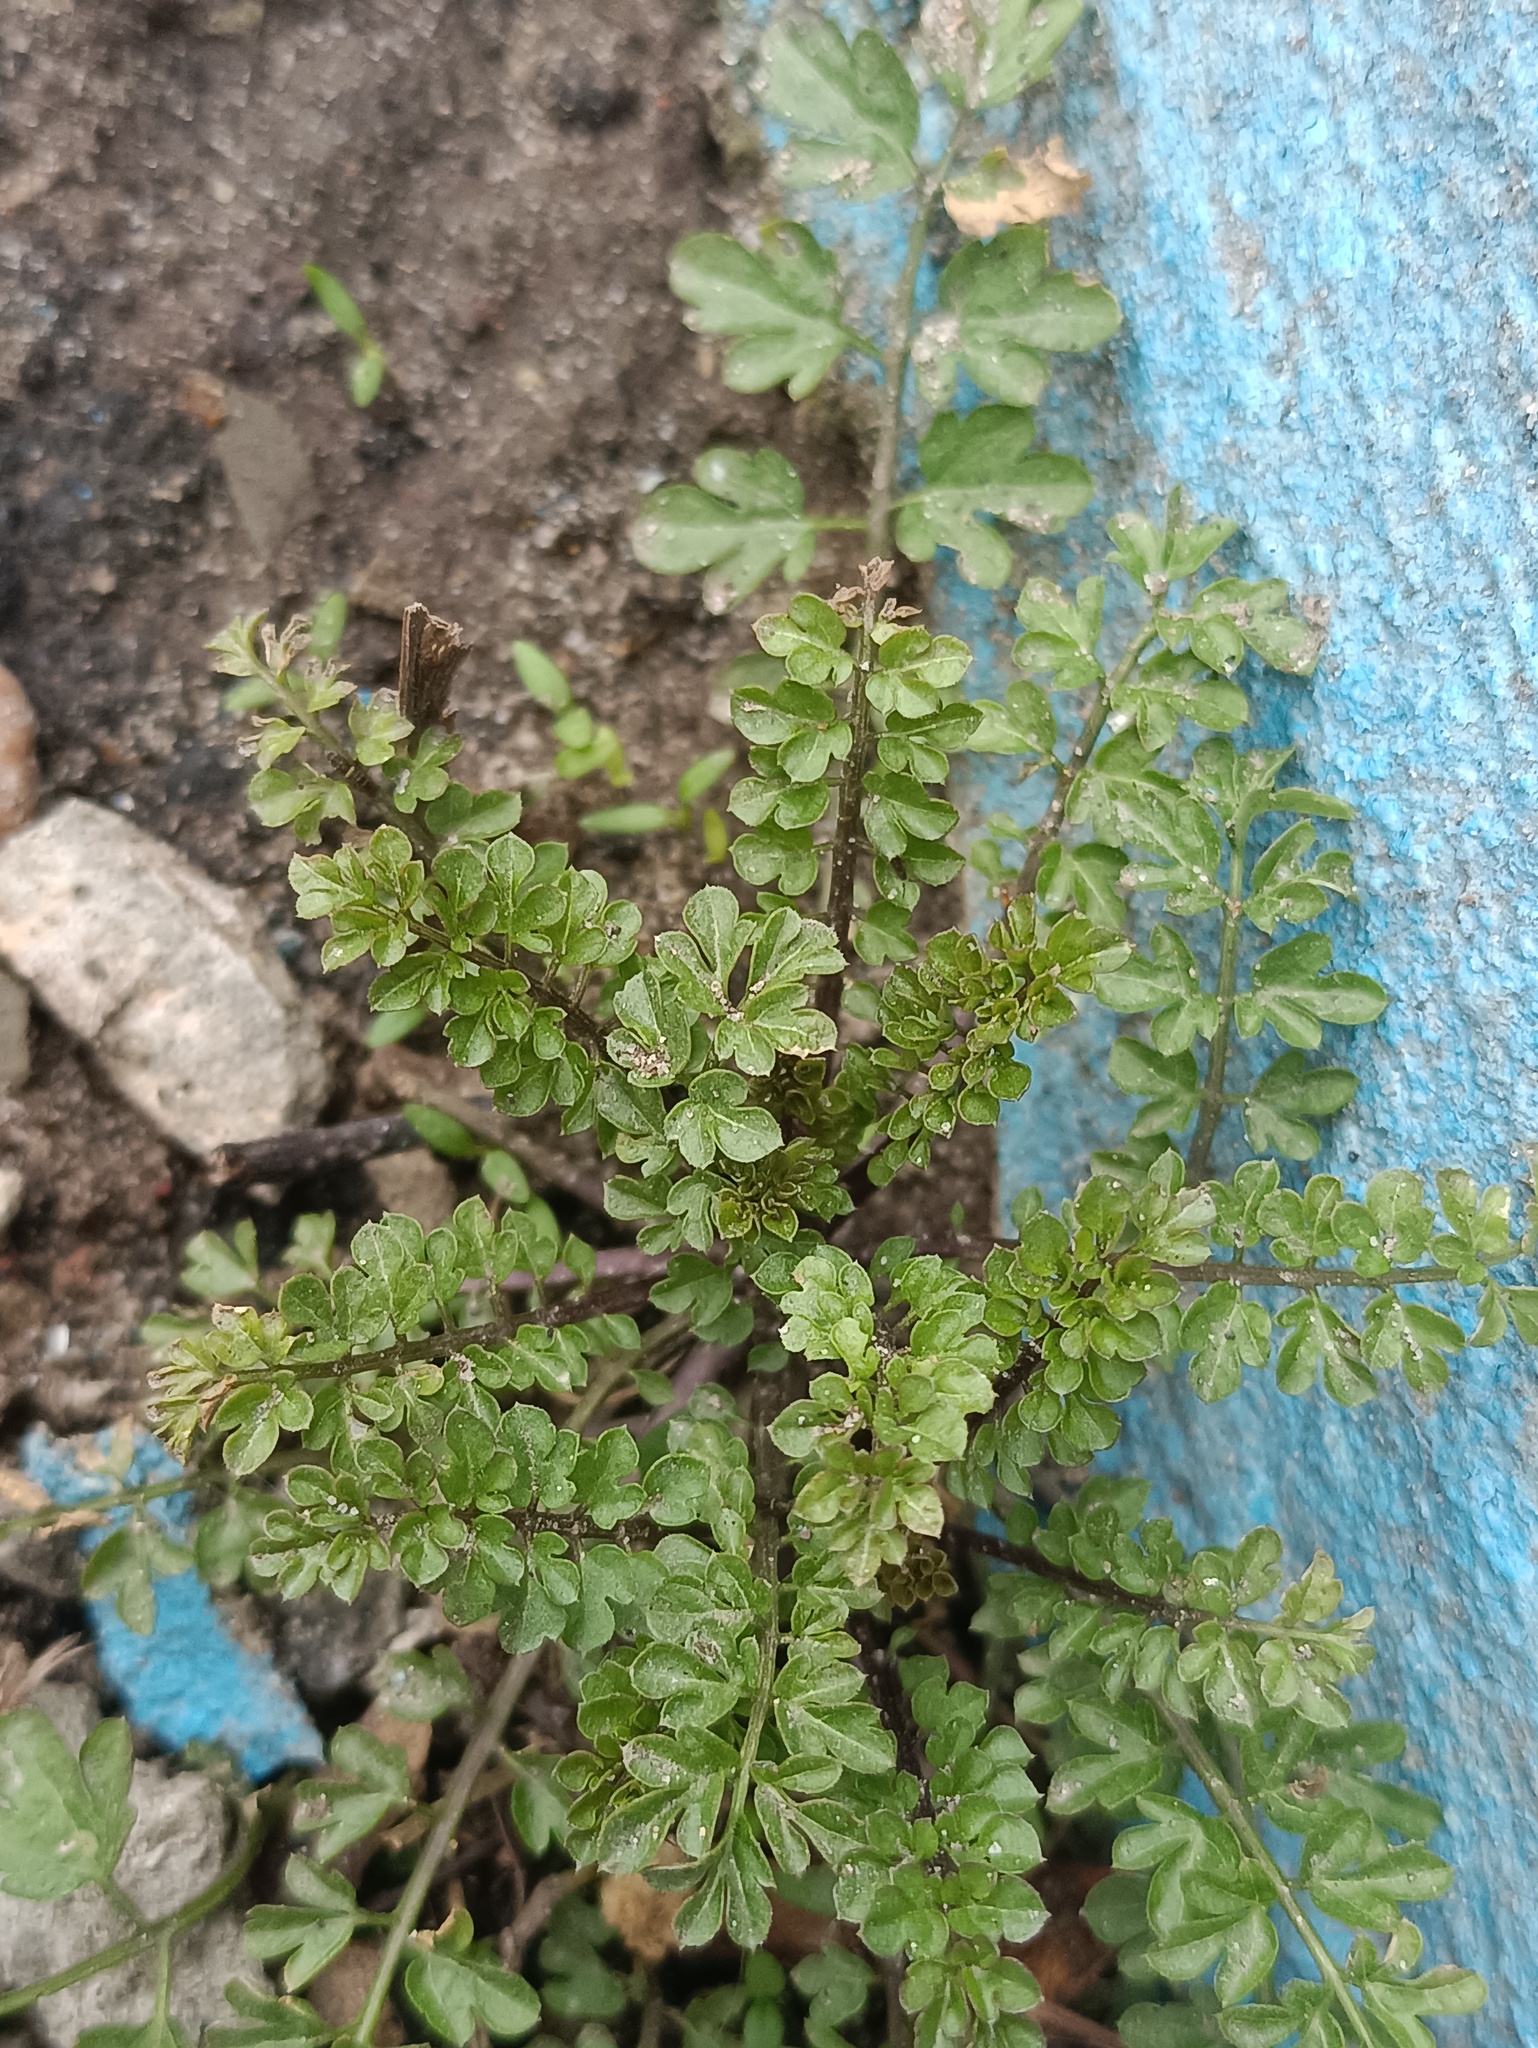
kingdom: Plantae
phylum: Tracheophyta
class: Magnoliopsida
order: Brassicales
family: Brassicaceae
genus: Cardamine
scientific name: Cardamine impatiens
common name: Narrow-leaved bitter-cress
